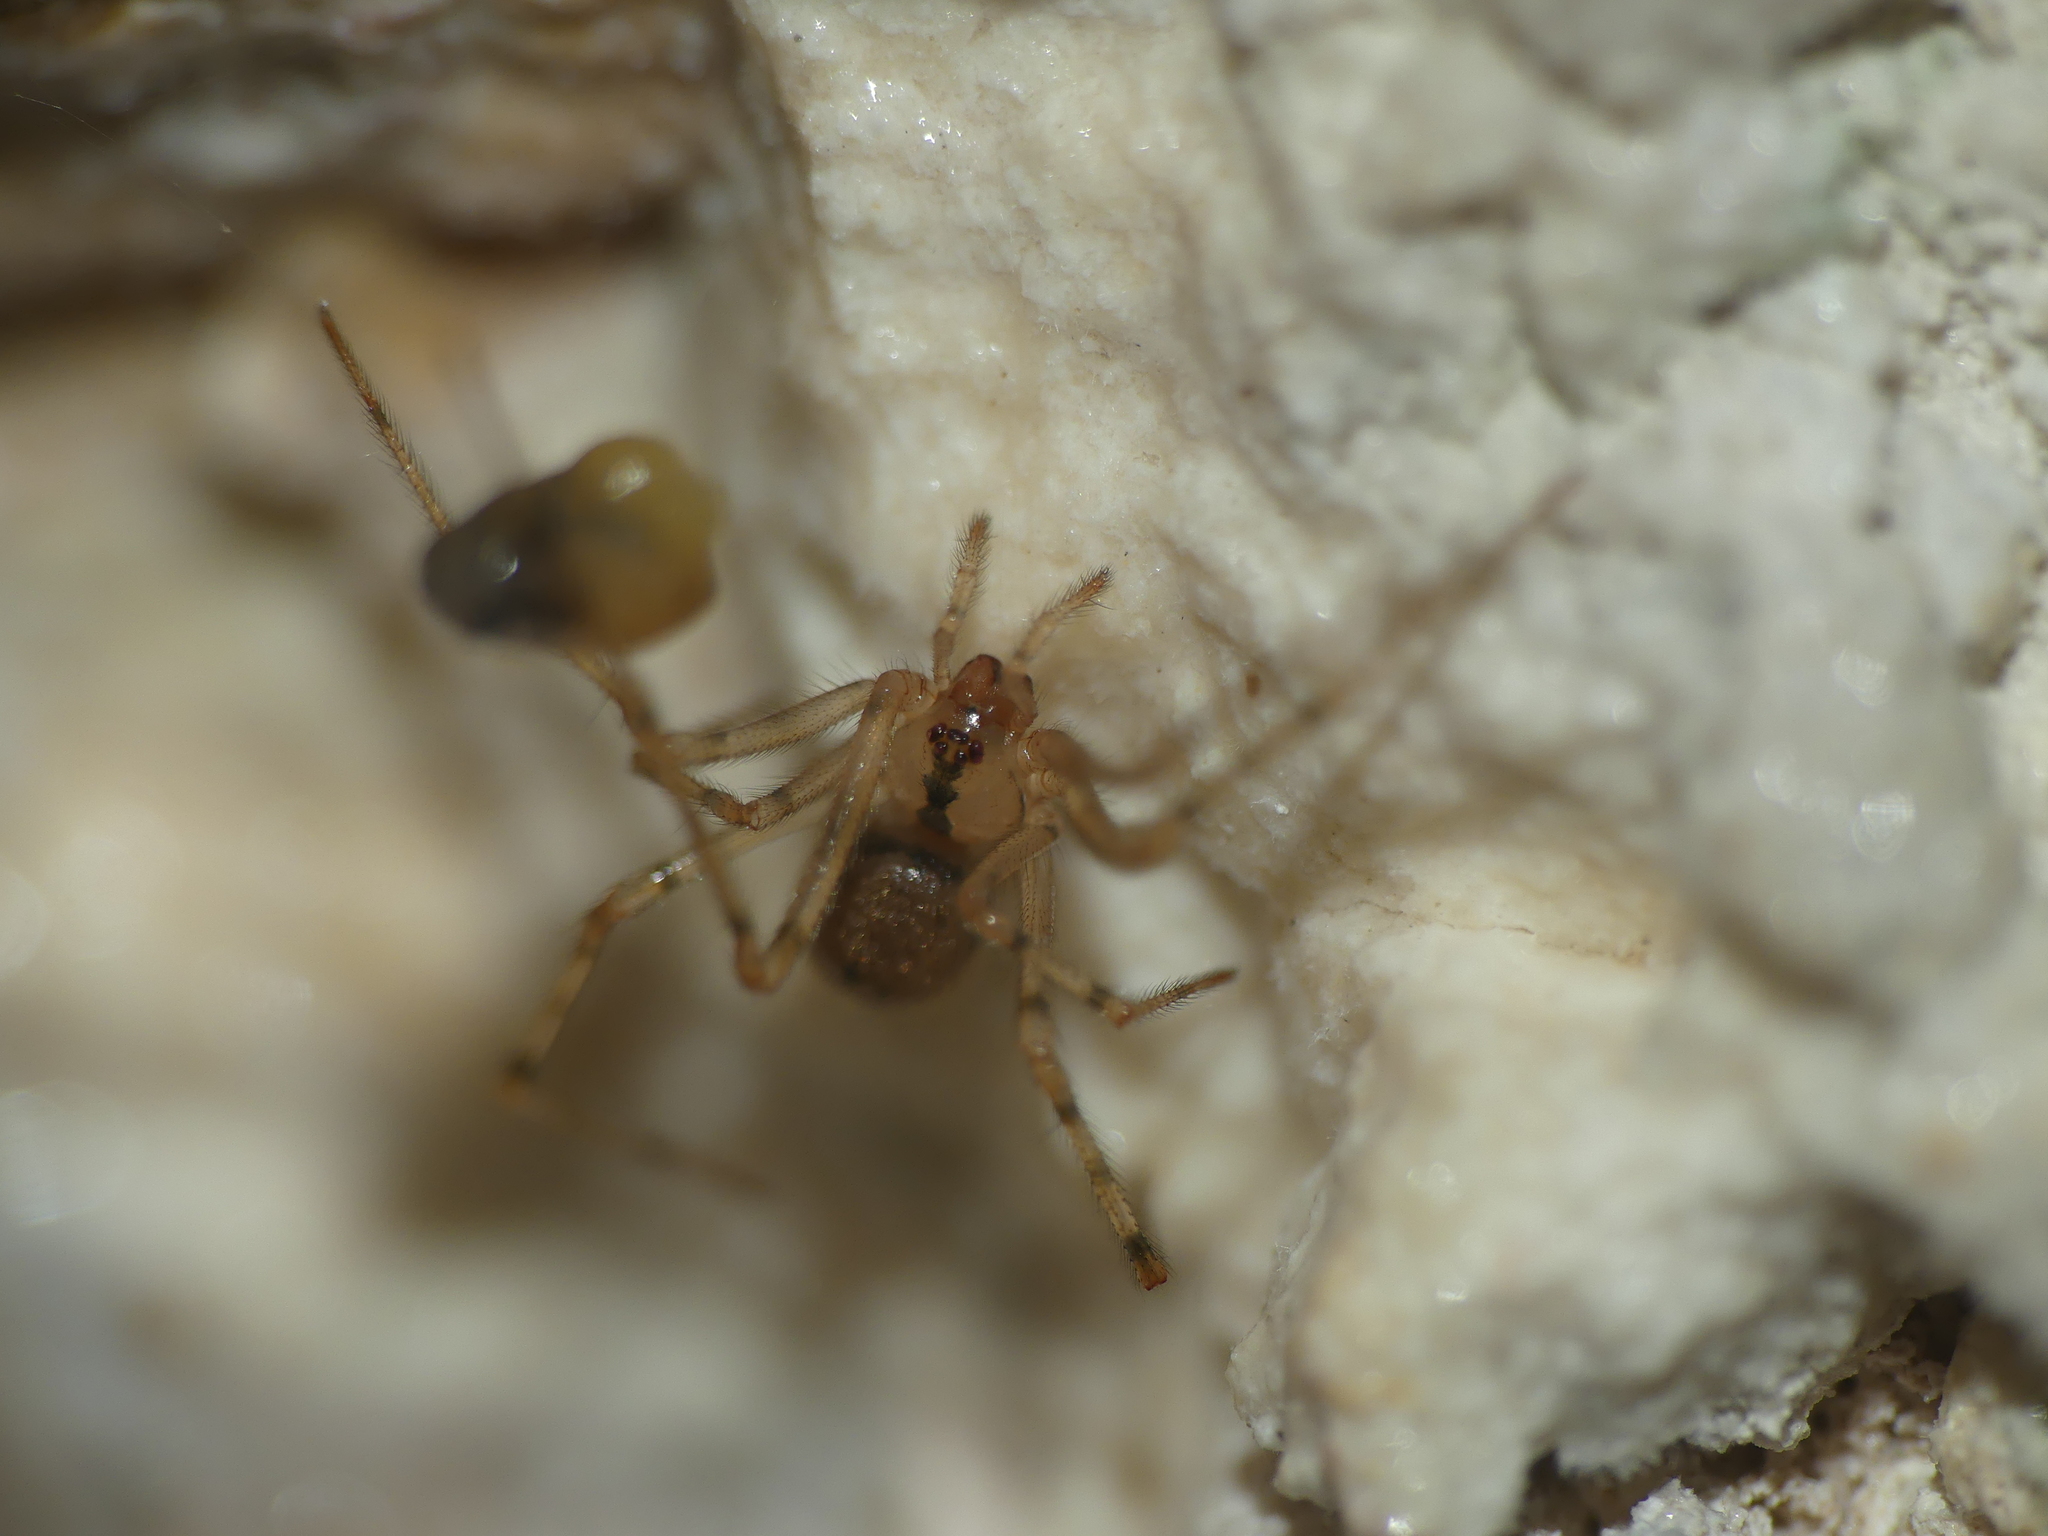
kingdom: Animalia
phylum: Arthropoda
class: Arachnida
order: Araneae
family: Nesticidae
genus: Nesticus
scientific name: Nesticus cellulanus
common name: Comb-footed cellar spider
